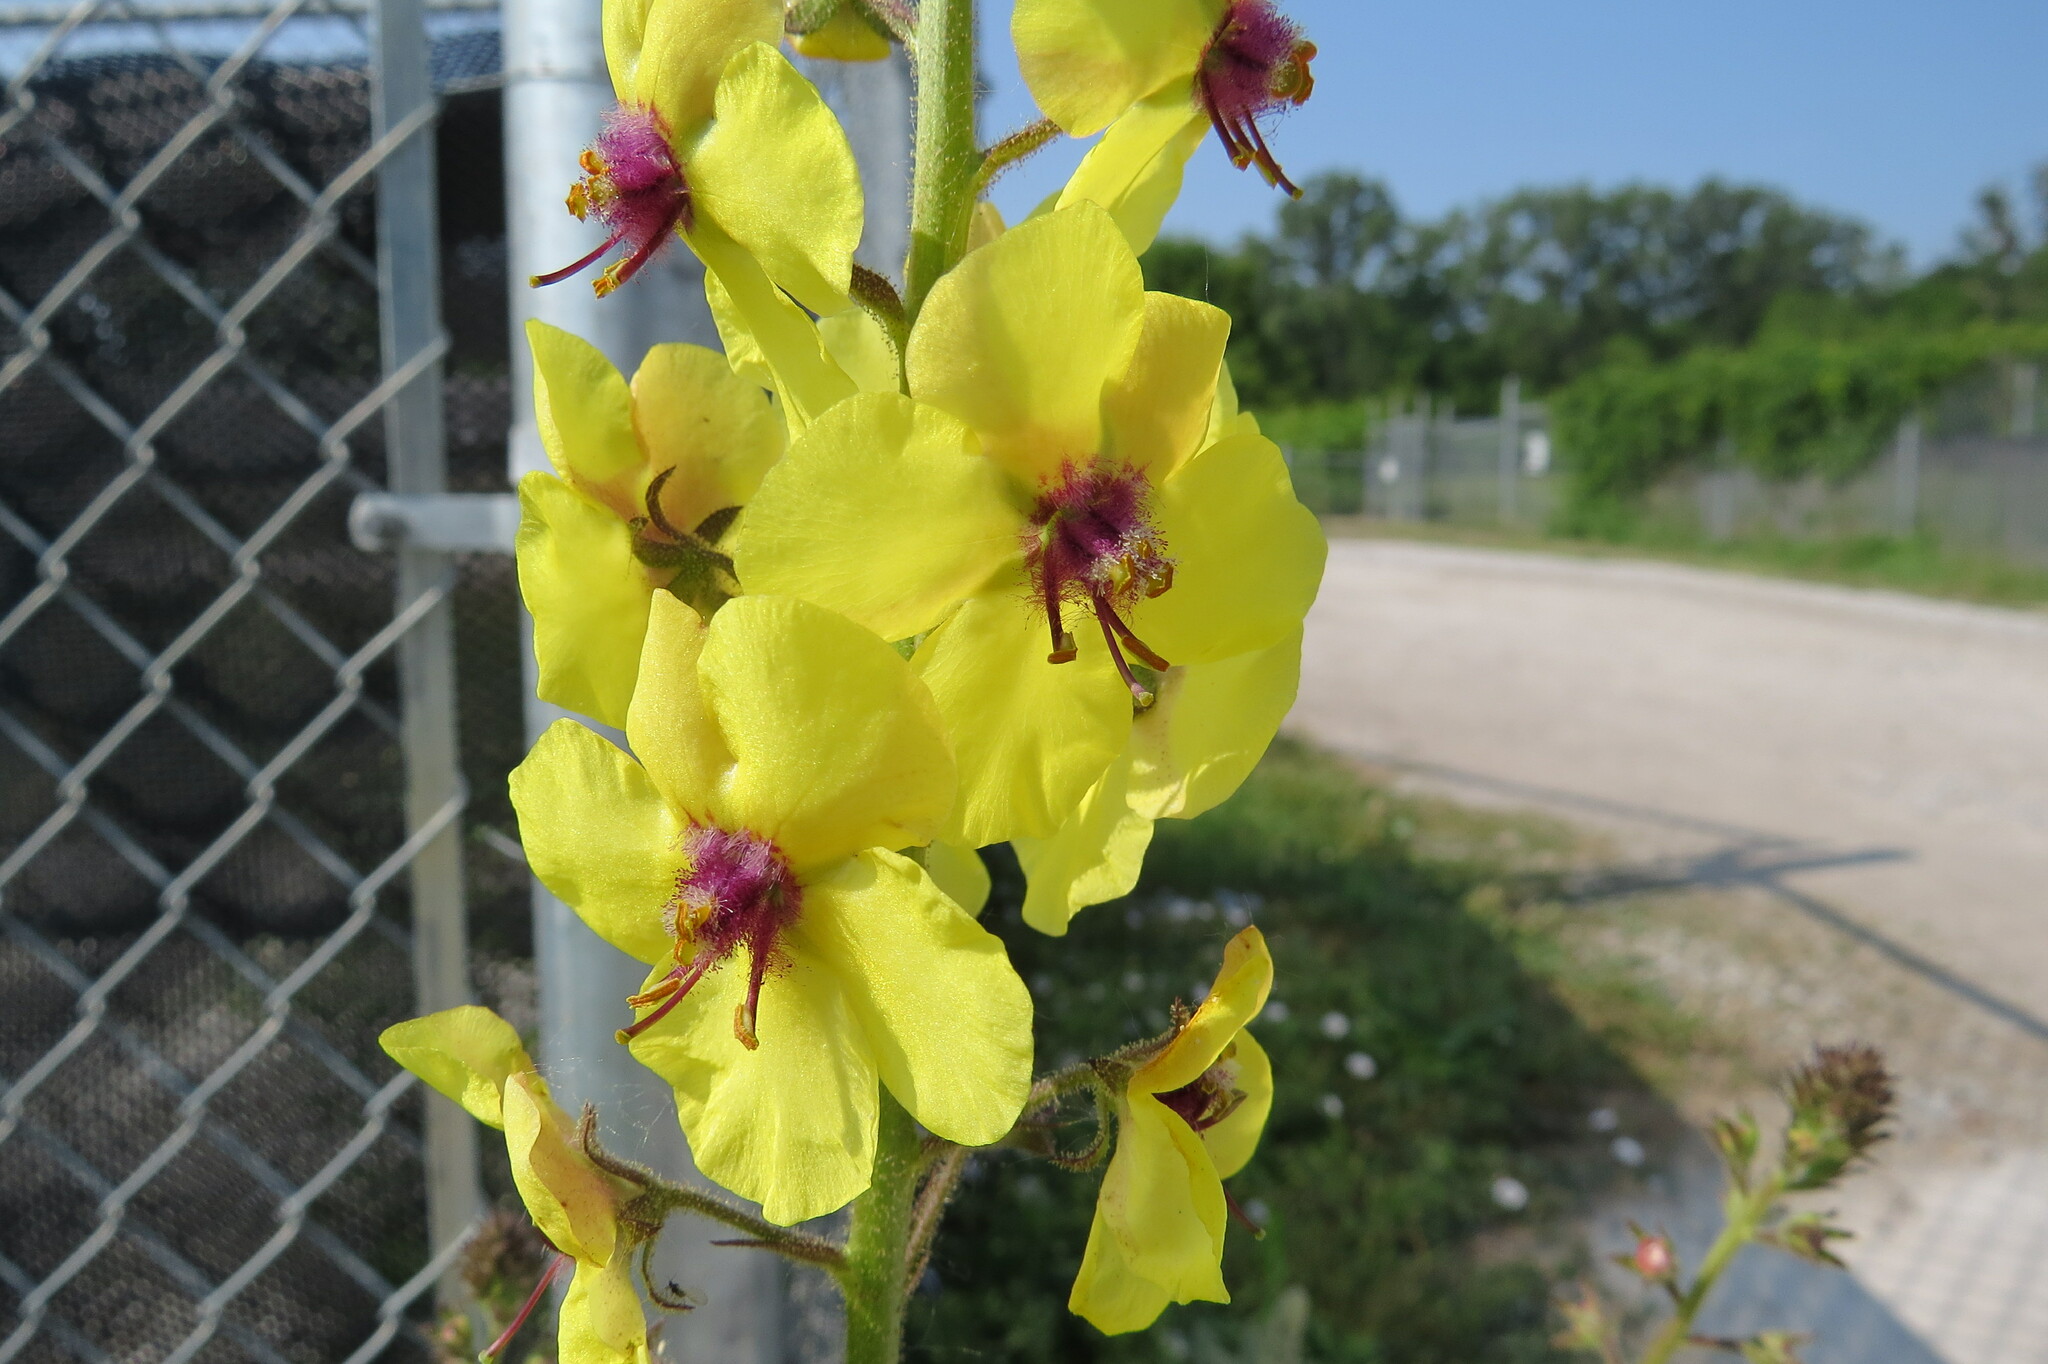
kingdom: Plantae
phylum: Tracheophyta
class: Magnoliopsida
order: Lamiales
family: Scrophulariaceae
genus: Verbascum
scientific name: Verbascum blattaria
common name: Moth mullein
